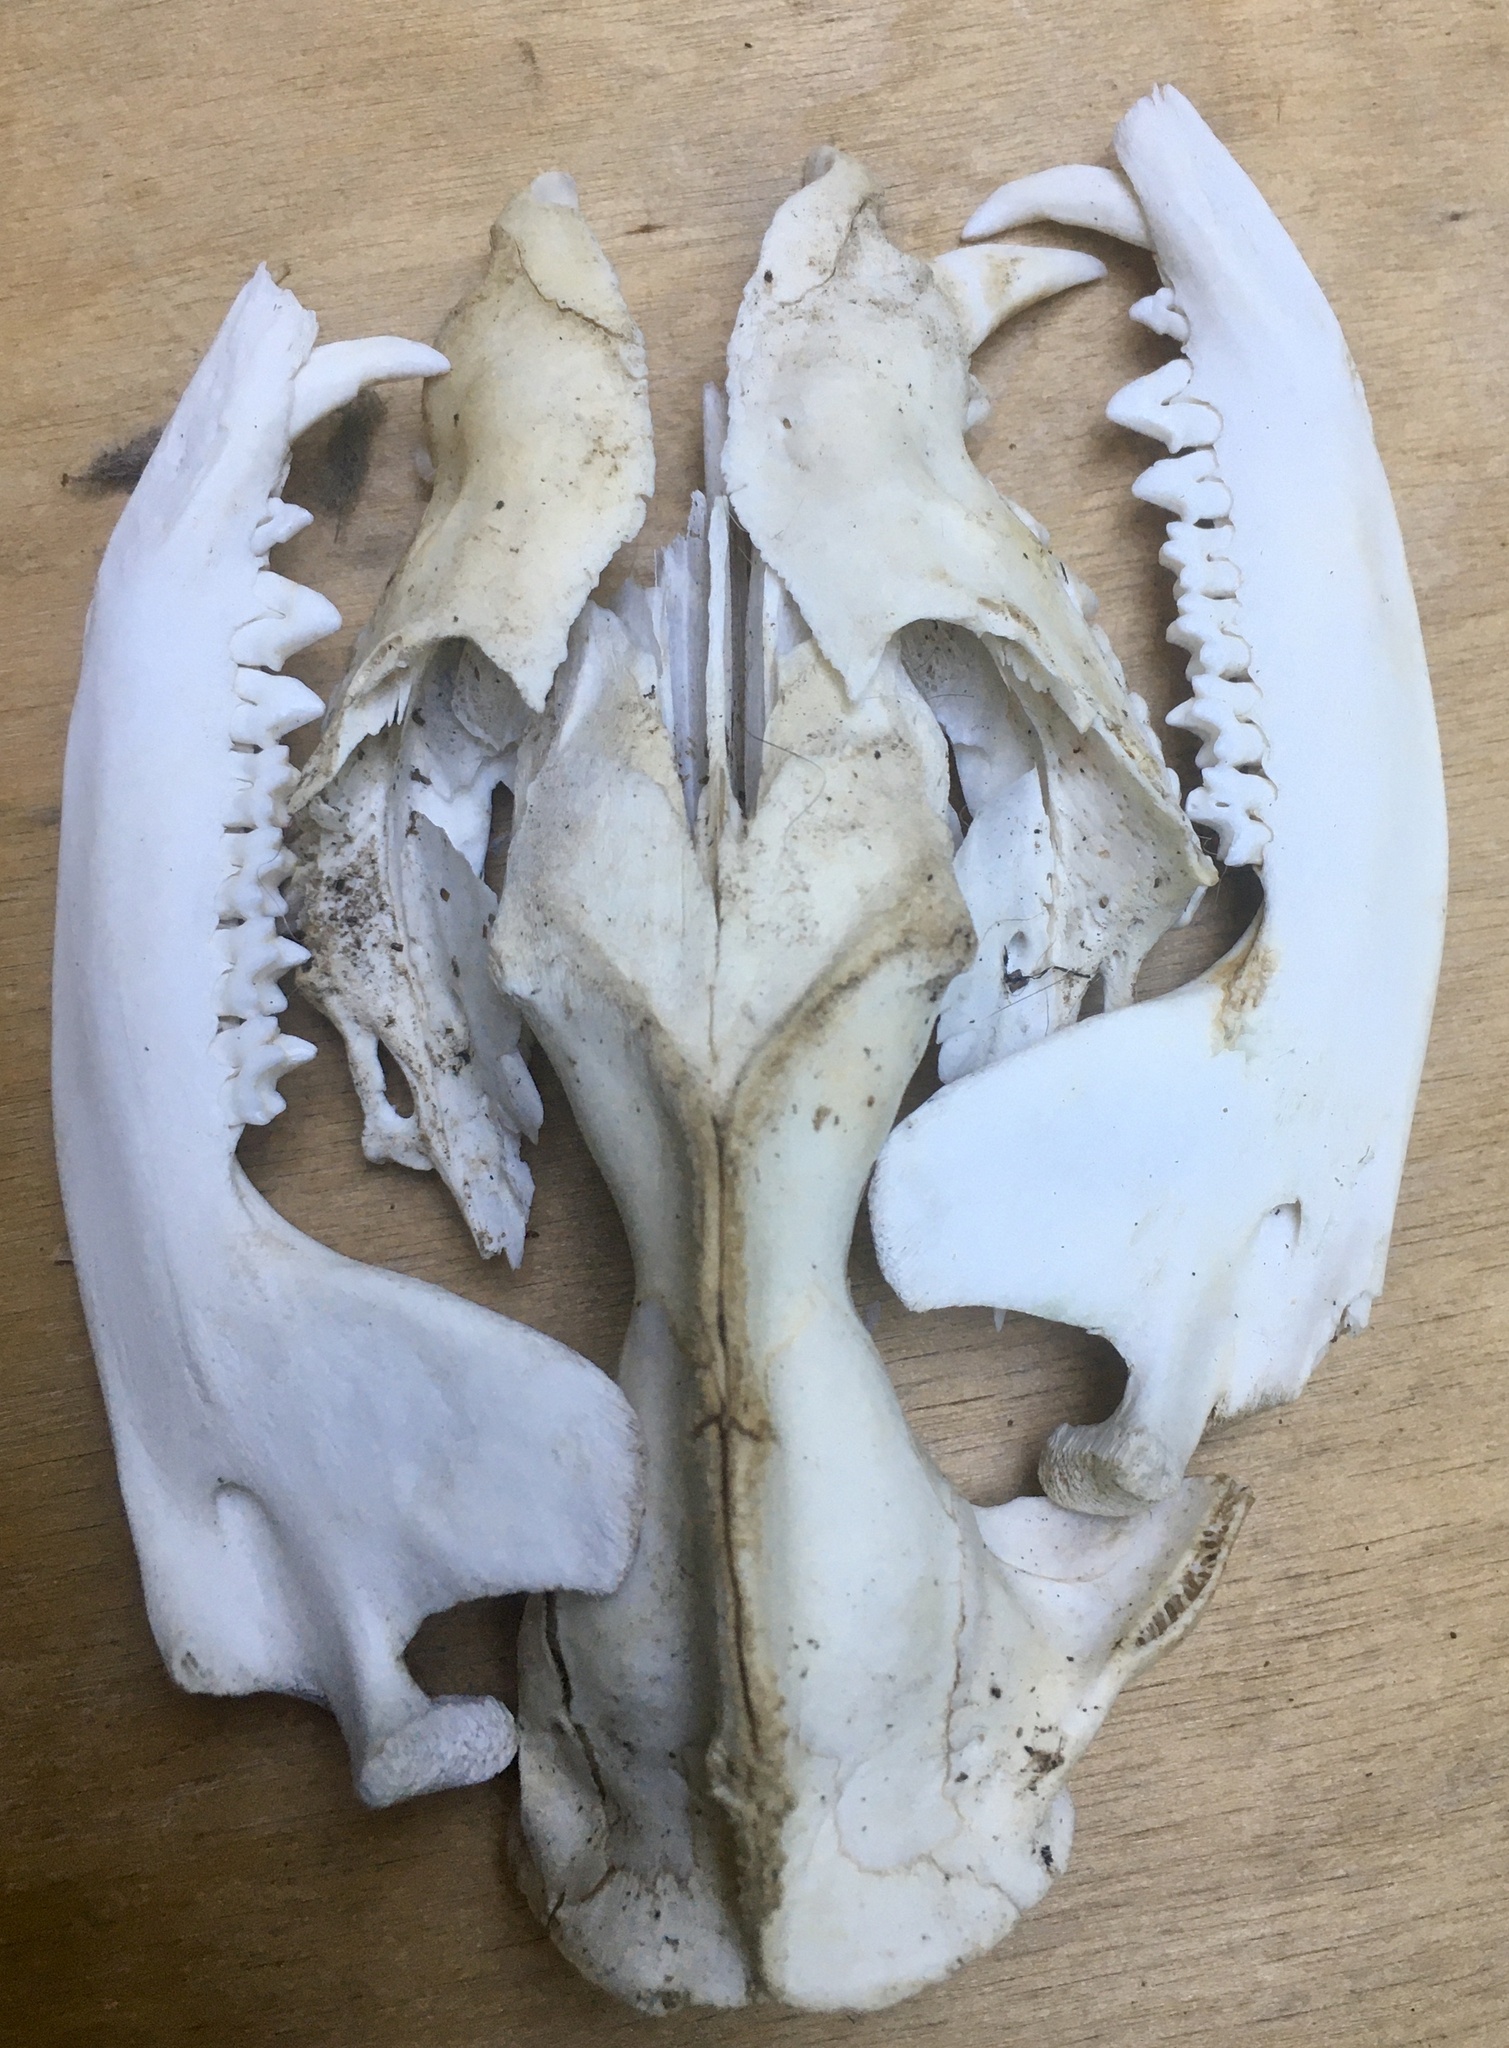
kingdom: Animalia
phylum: Chordata
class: Mammalia
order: Didelphimorphia
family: Didelphidae
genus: Didelphis
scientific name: Didelphis virginiana
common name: Virginia opossum
